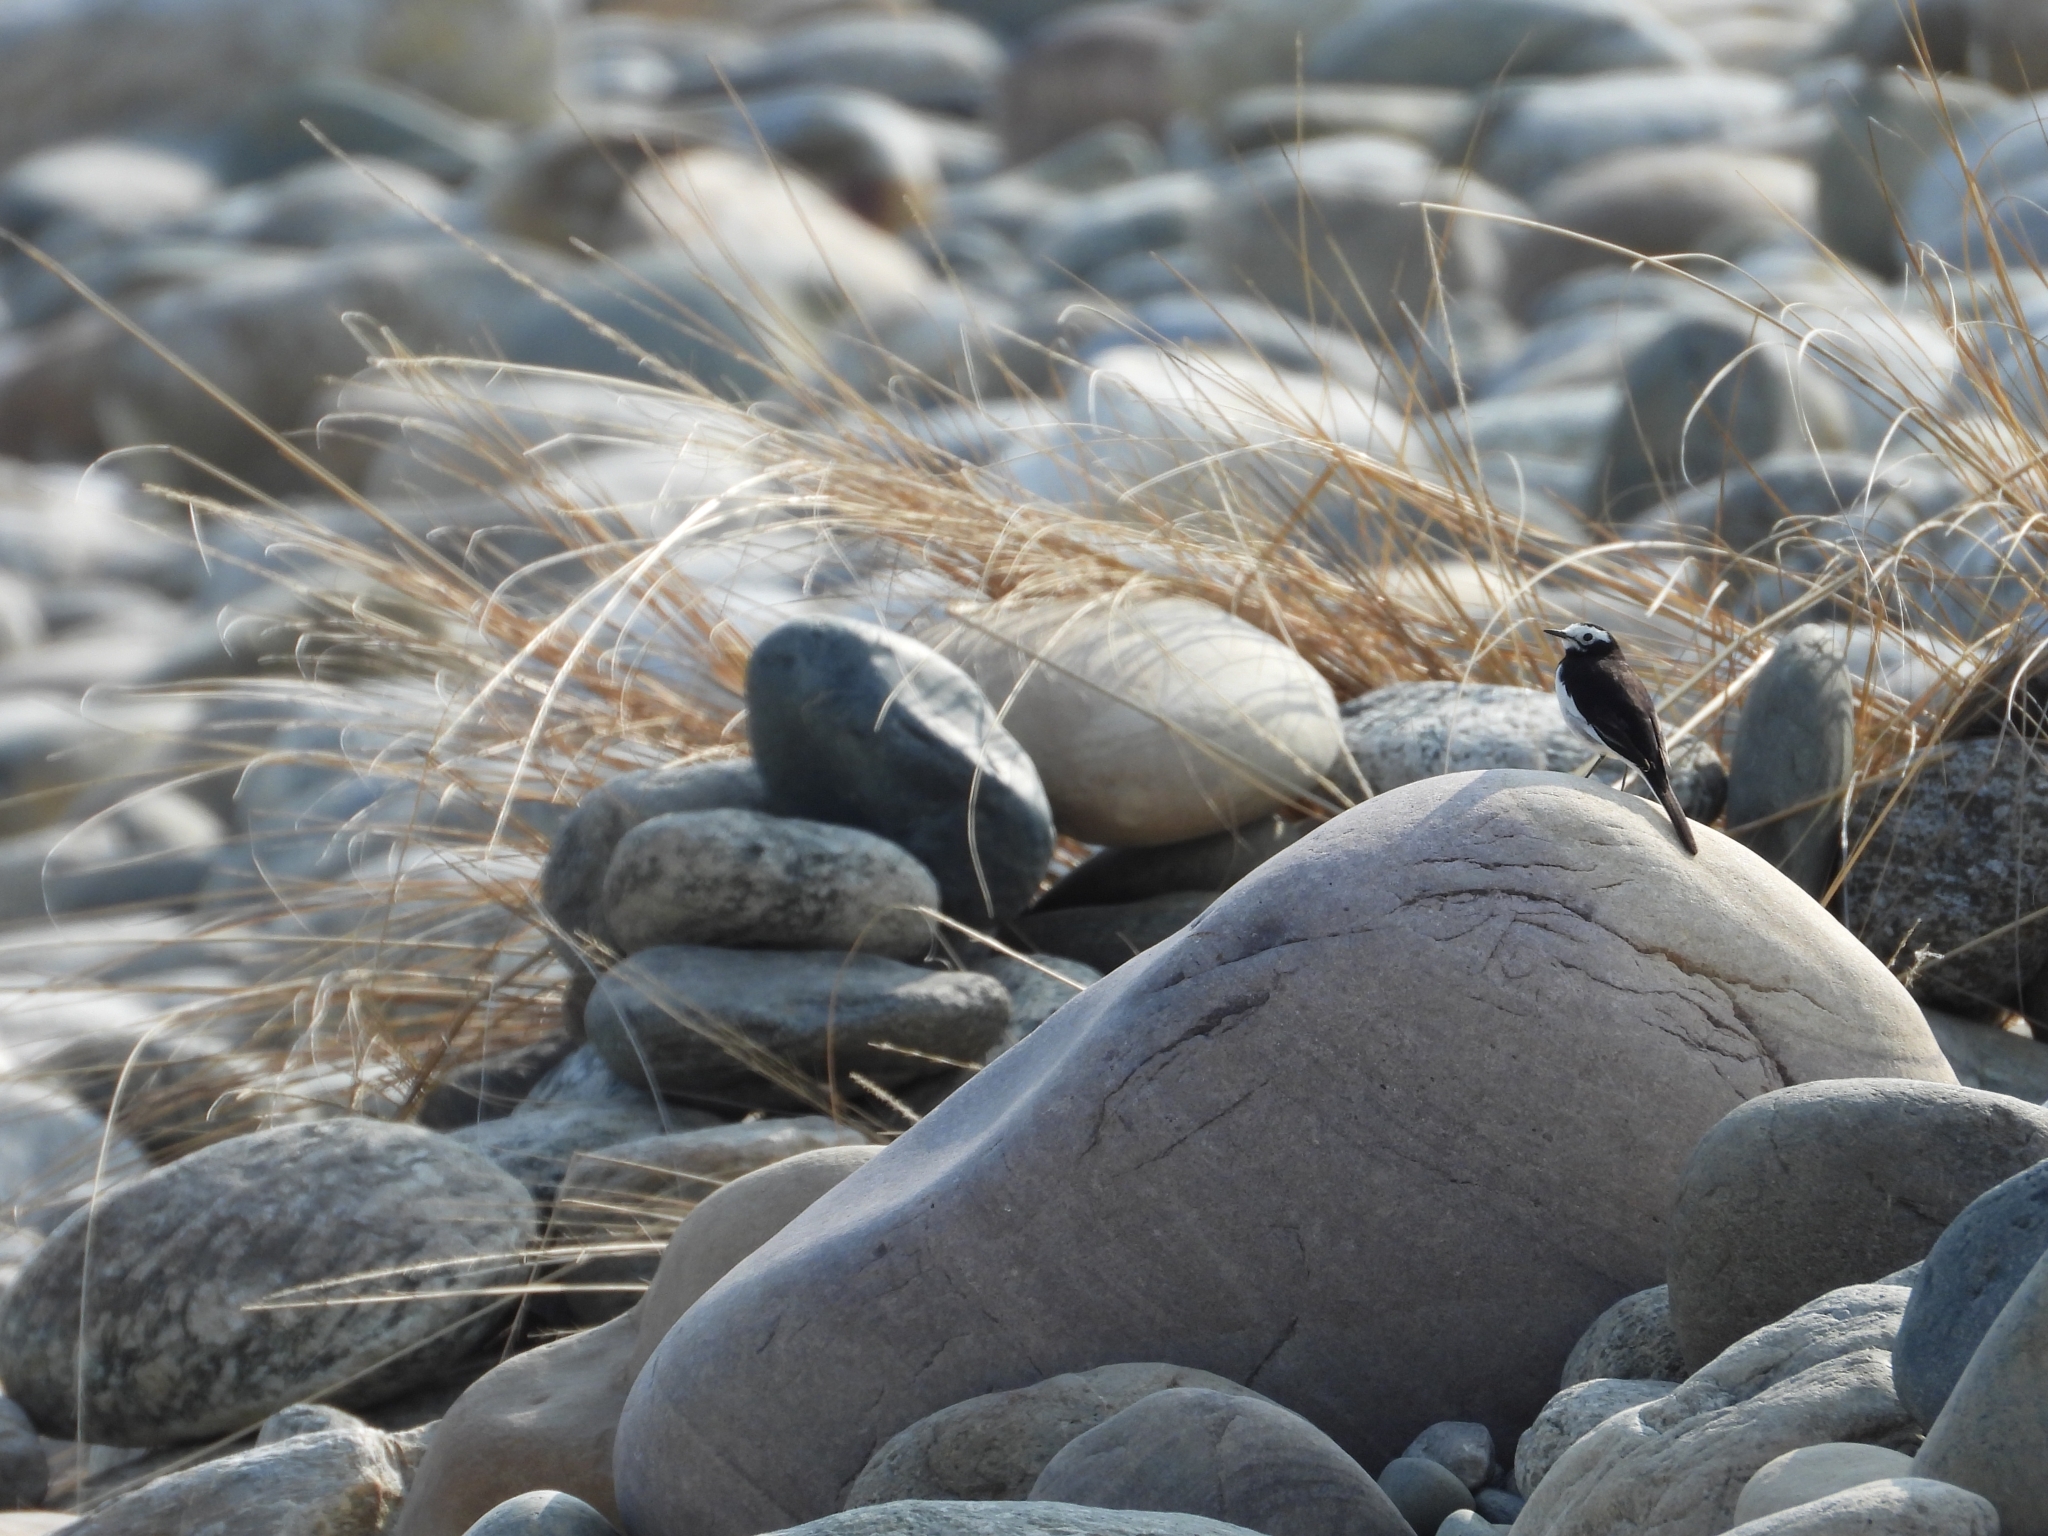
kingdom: Animalia
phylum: Chordata
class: Aves
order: Passeriformes
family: Motacillidae
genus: Motacilla
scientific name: Motacilla alba
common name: White wagtail
